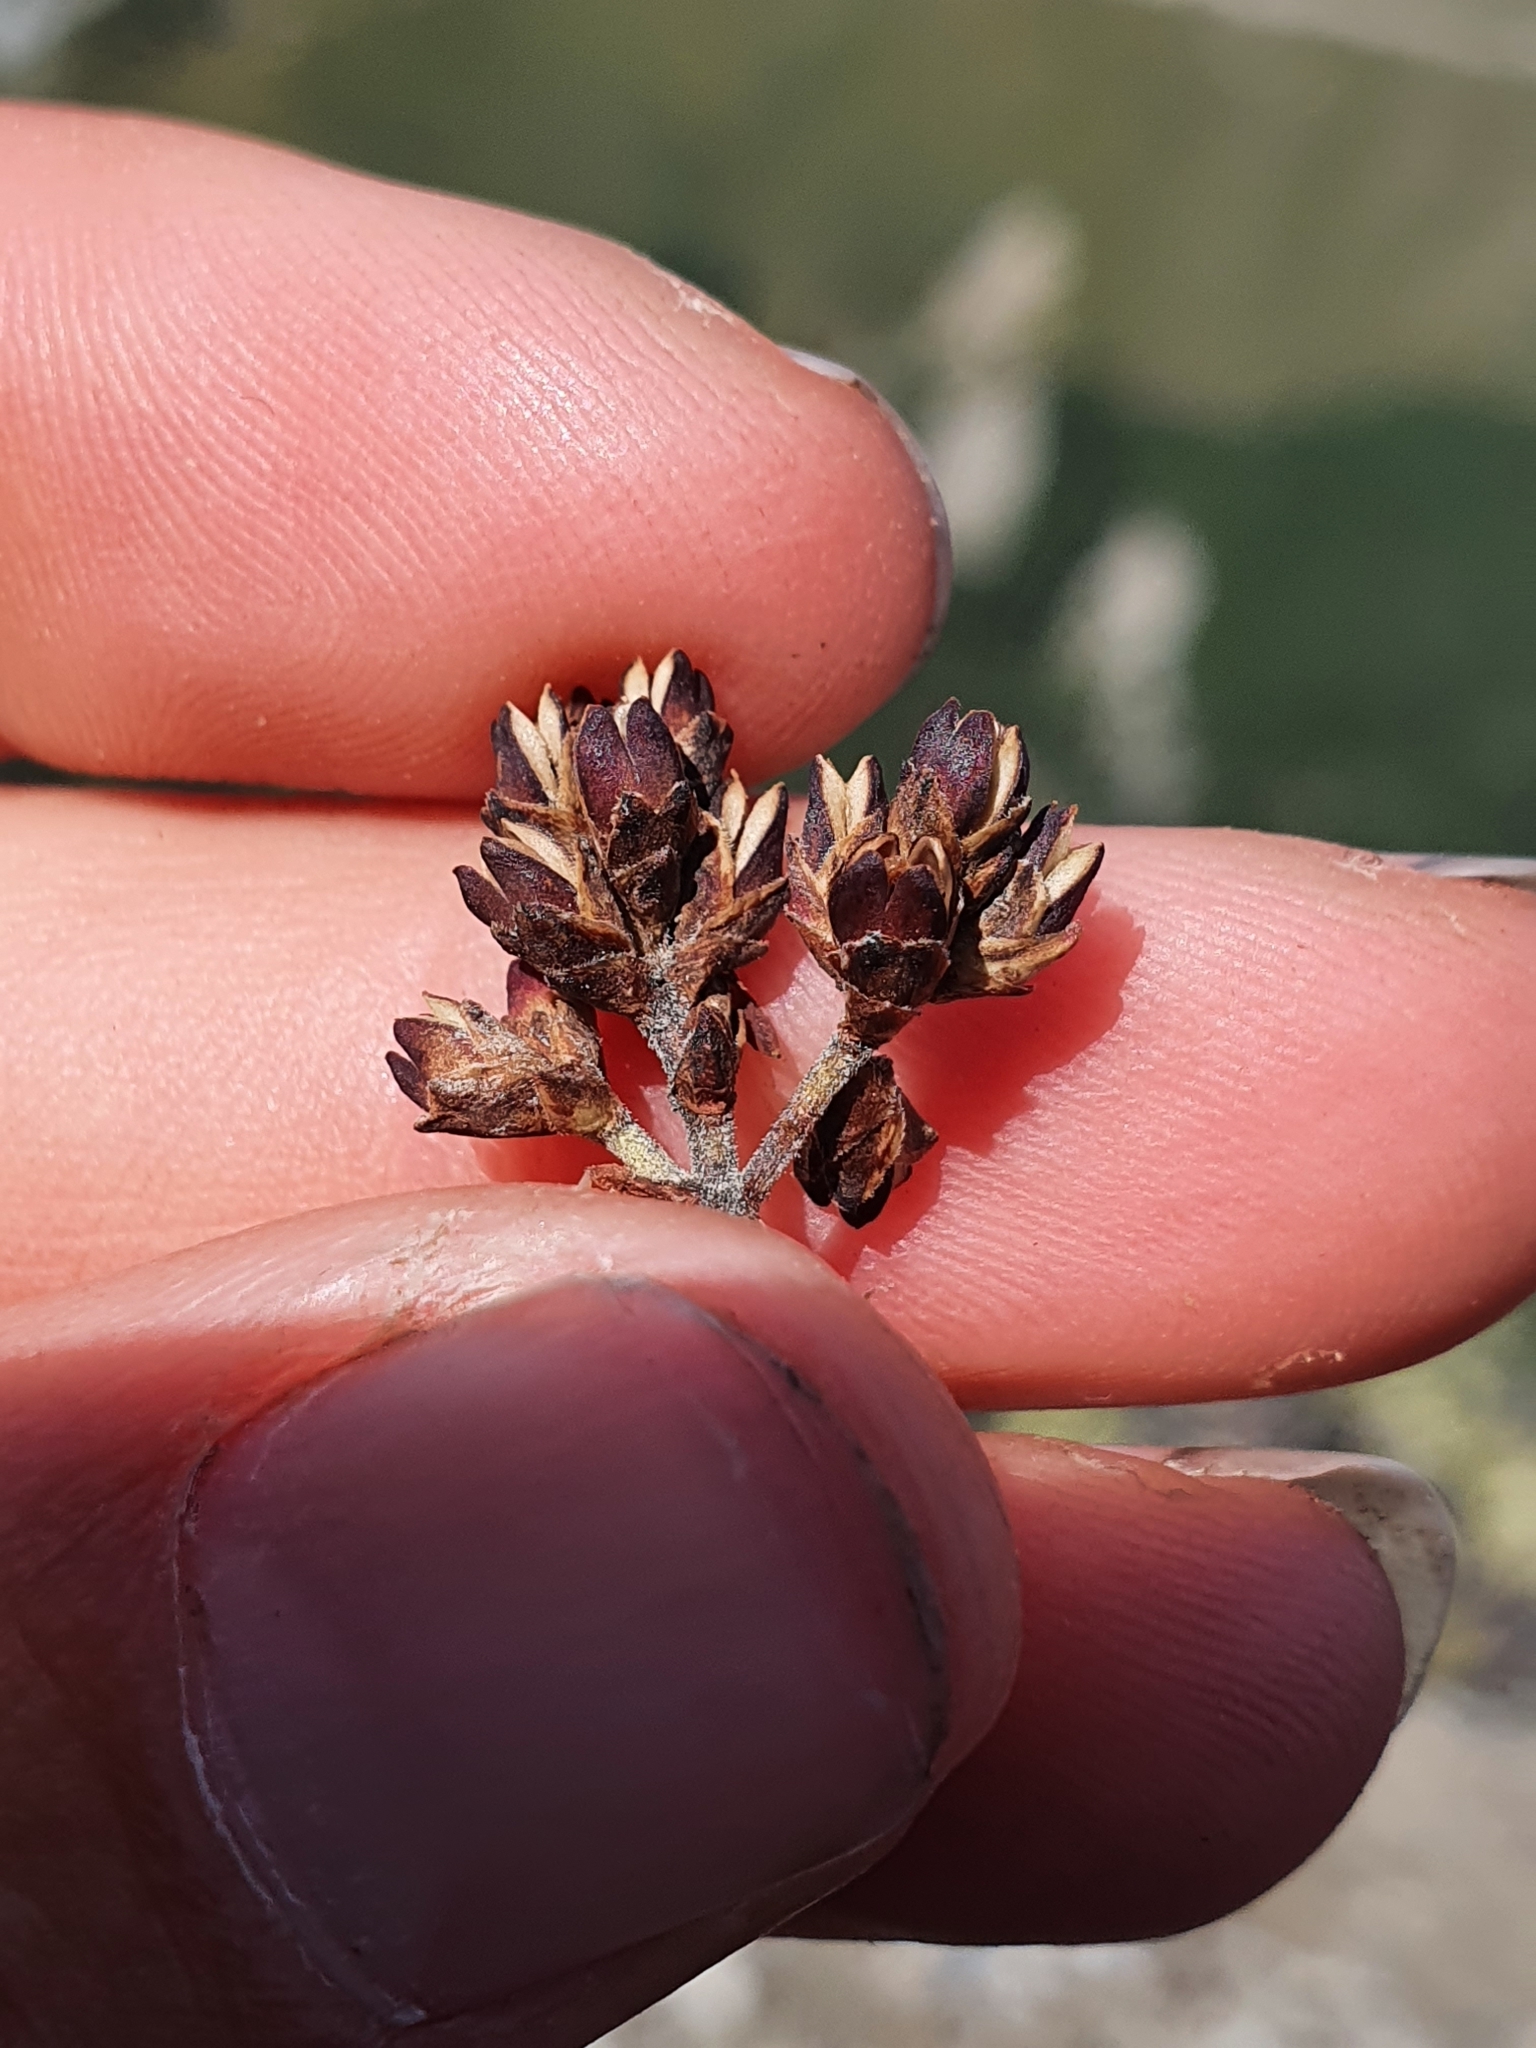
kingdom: Plantae
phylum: Tracheophyta
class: Magnoliopsida
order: Lamiales
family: Plantaginaceae
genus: Veronica
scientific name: Veronica pentasepala
